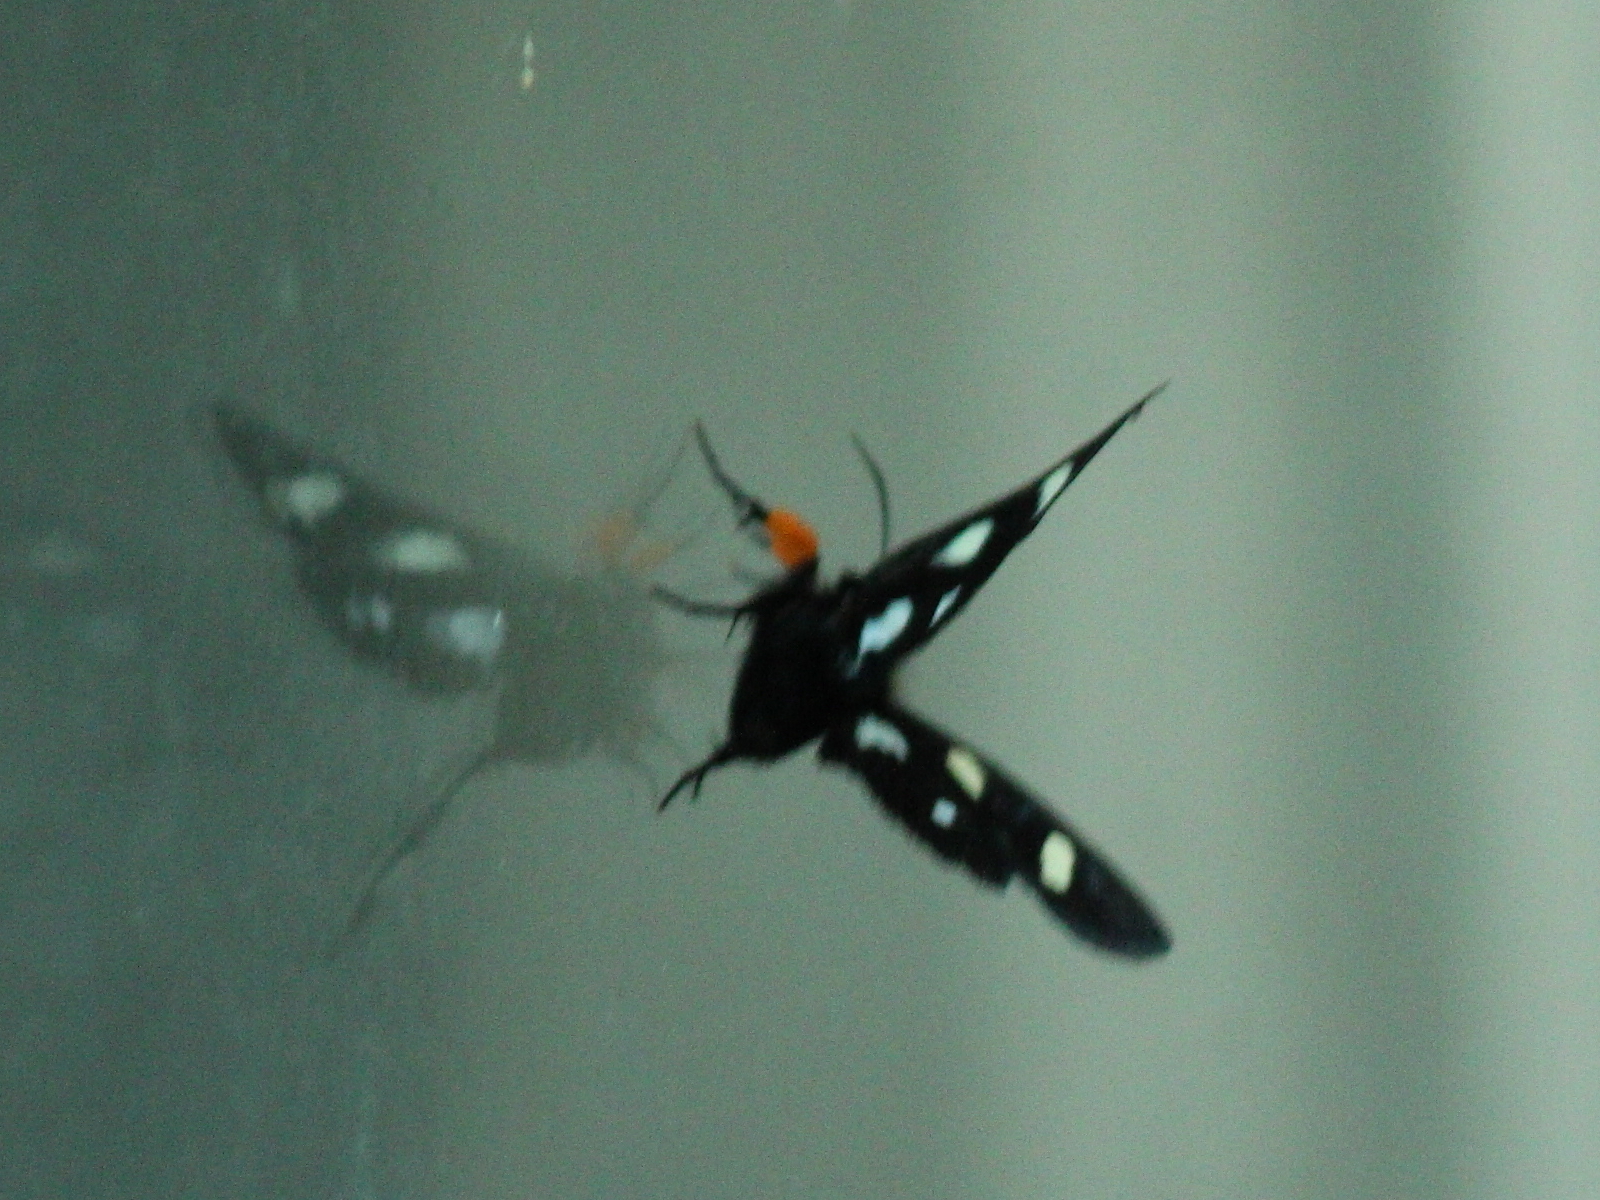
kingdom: Animalia
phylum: Arthropoda
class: Insecta
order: Lepidoptera
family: Noctuidae
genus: Alypia
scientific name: Alypia octomaculata
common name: Eight-spotted forester
